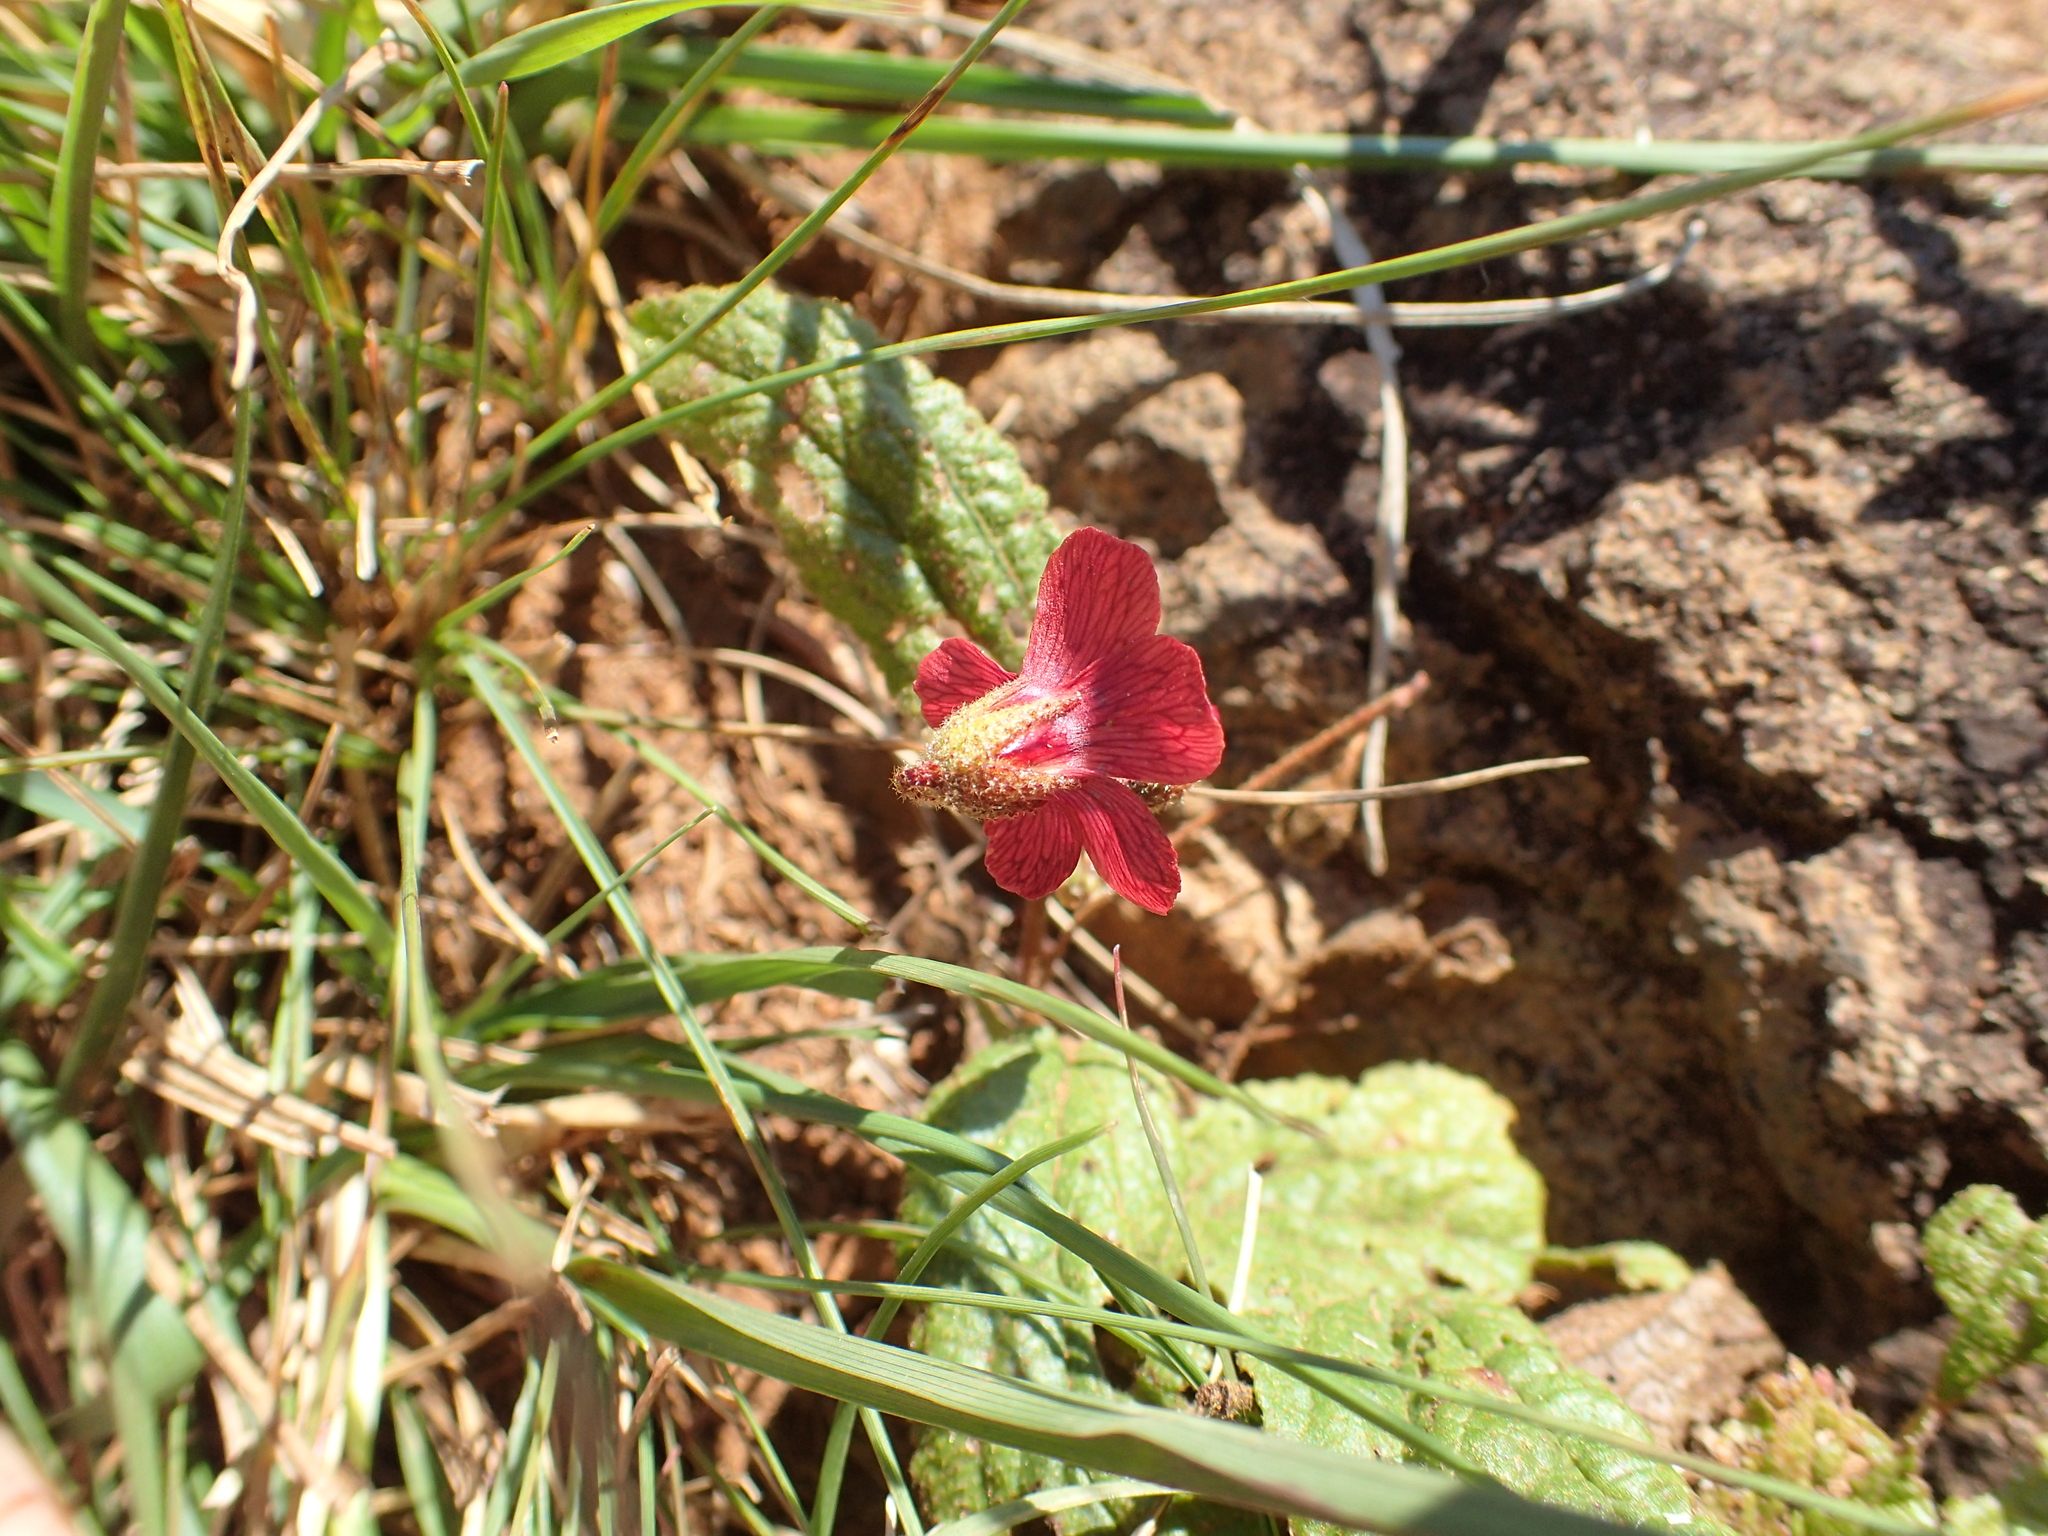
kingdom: Plantae
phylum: Tracheophyta
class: Magnoliopsida
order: Malvales
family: Malvaceae
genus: Hermannia
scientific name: Hermannia woodii
